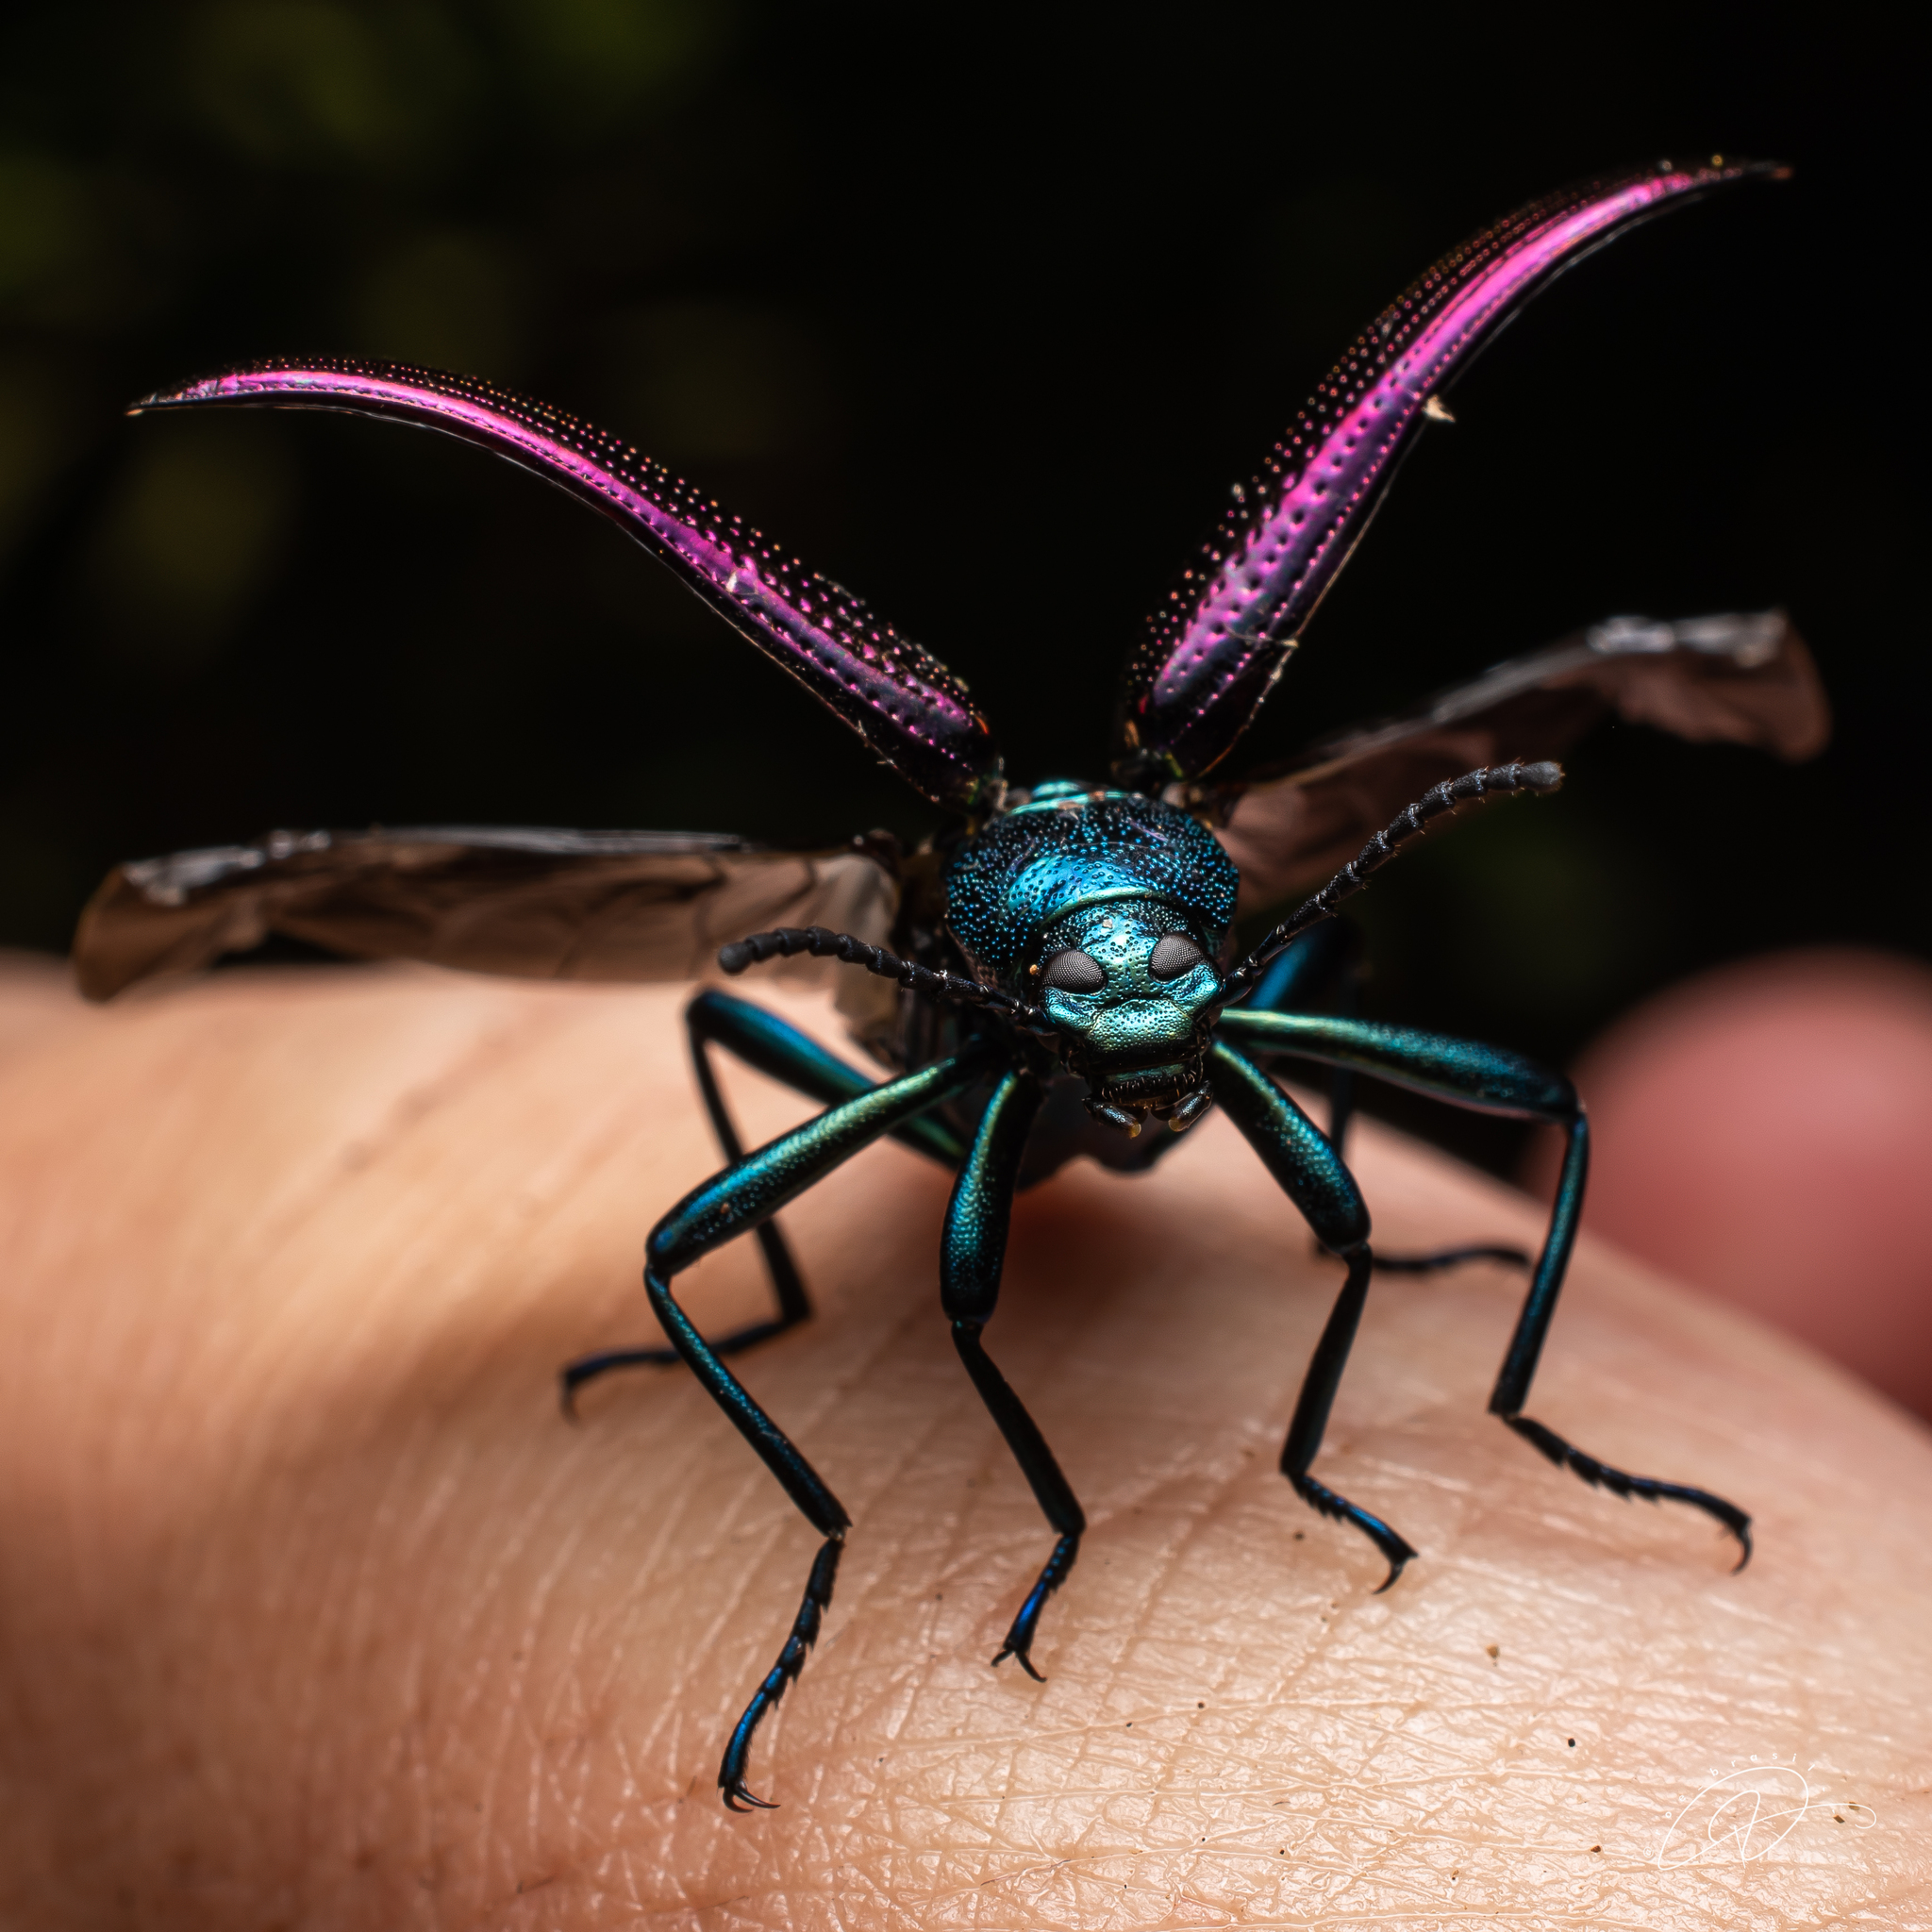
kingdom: Animalia
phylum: Arthropoda
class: Insecta
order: Coleoptera
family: Tenebrionidae
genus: Strongylium
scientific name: Strongylium
